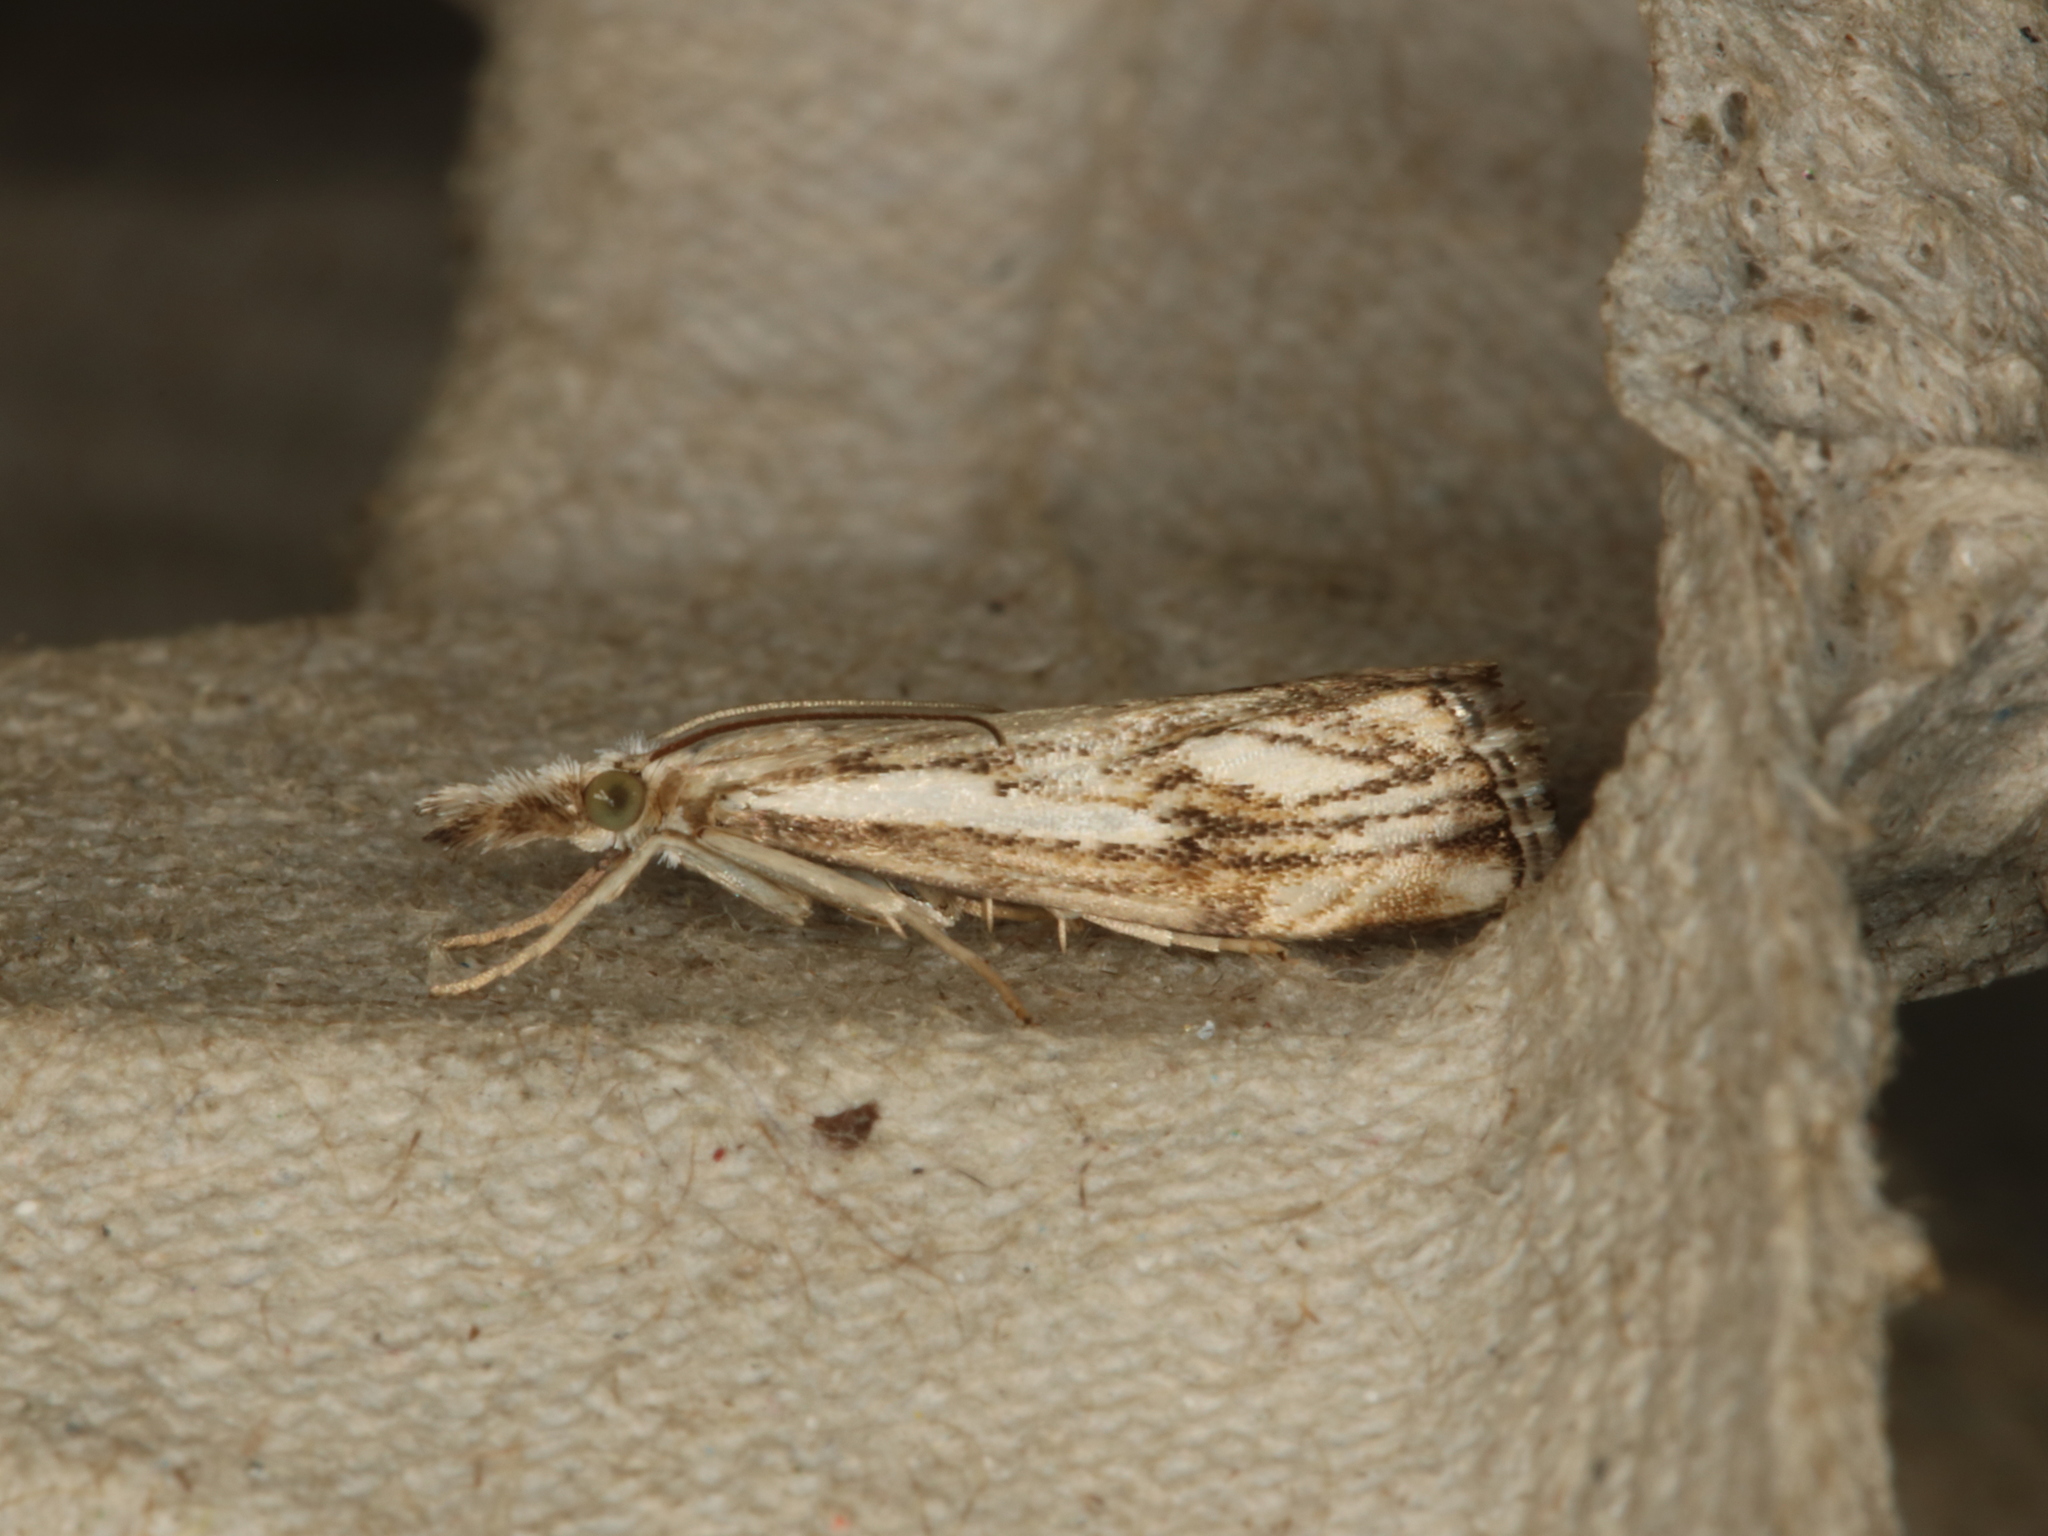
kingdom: Animalia
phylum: Arthropoda
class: Insecta
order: Lepidoptera
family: Crambidae
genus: Catoptria
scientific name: Catoptria falsella
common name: Chequered grass-veneer
